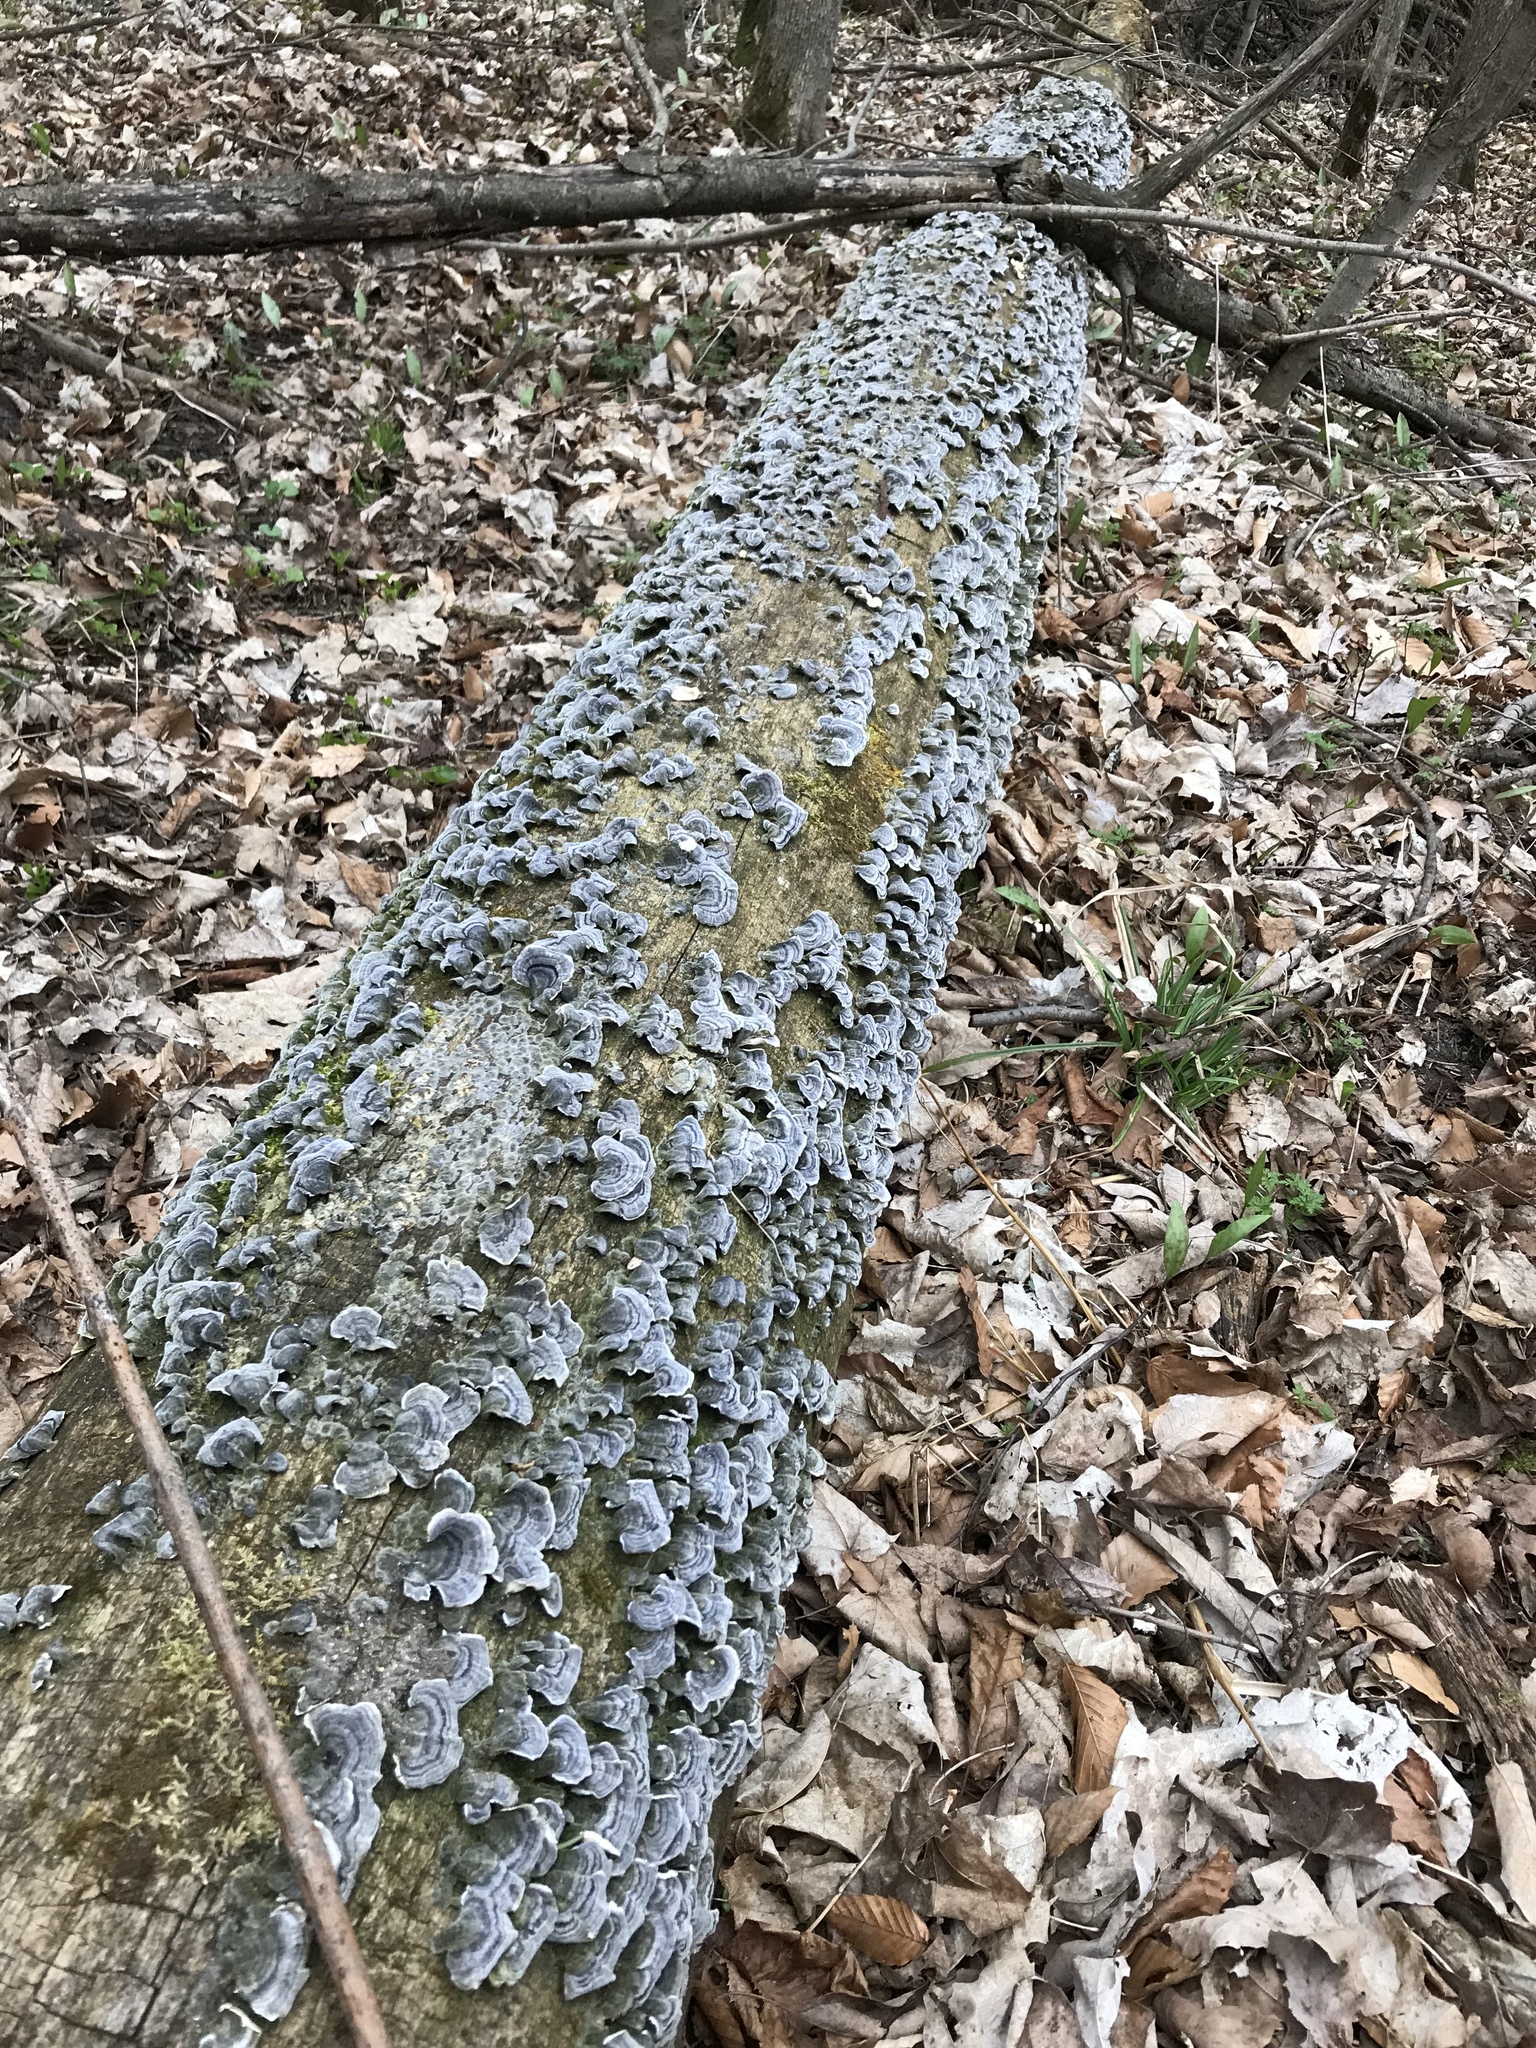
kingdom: Fungi
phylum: Basidiomycota
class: Agaricomycetes
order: Polyporales
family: Polyporaceae
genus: Trametes
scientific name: Trametes versicolor
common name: Turkeytail
